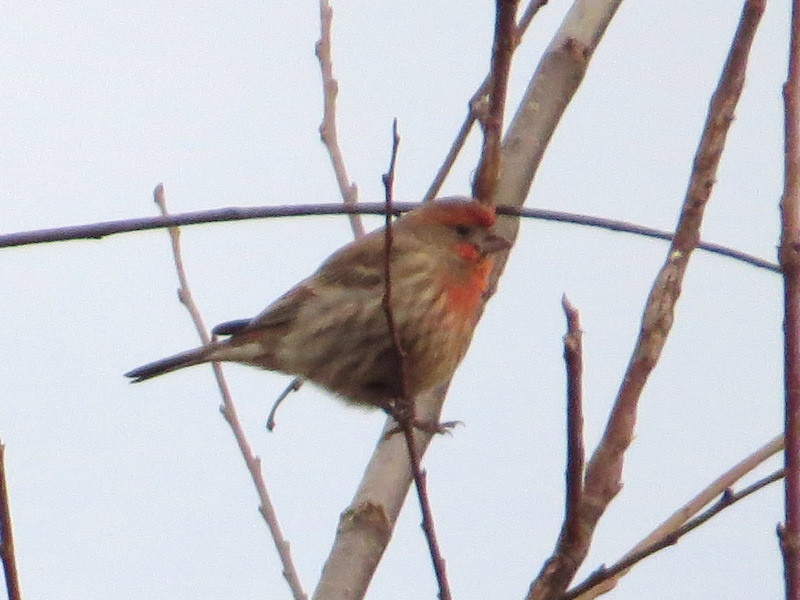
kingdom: Animalia
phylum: Chordata
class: Aves
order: Passeriformes
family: Fringillidae
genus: Haemorhous
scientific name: Haemorhous mexicanus
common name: House finch
